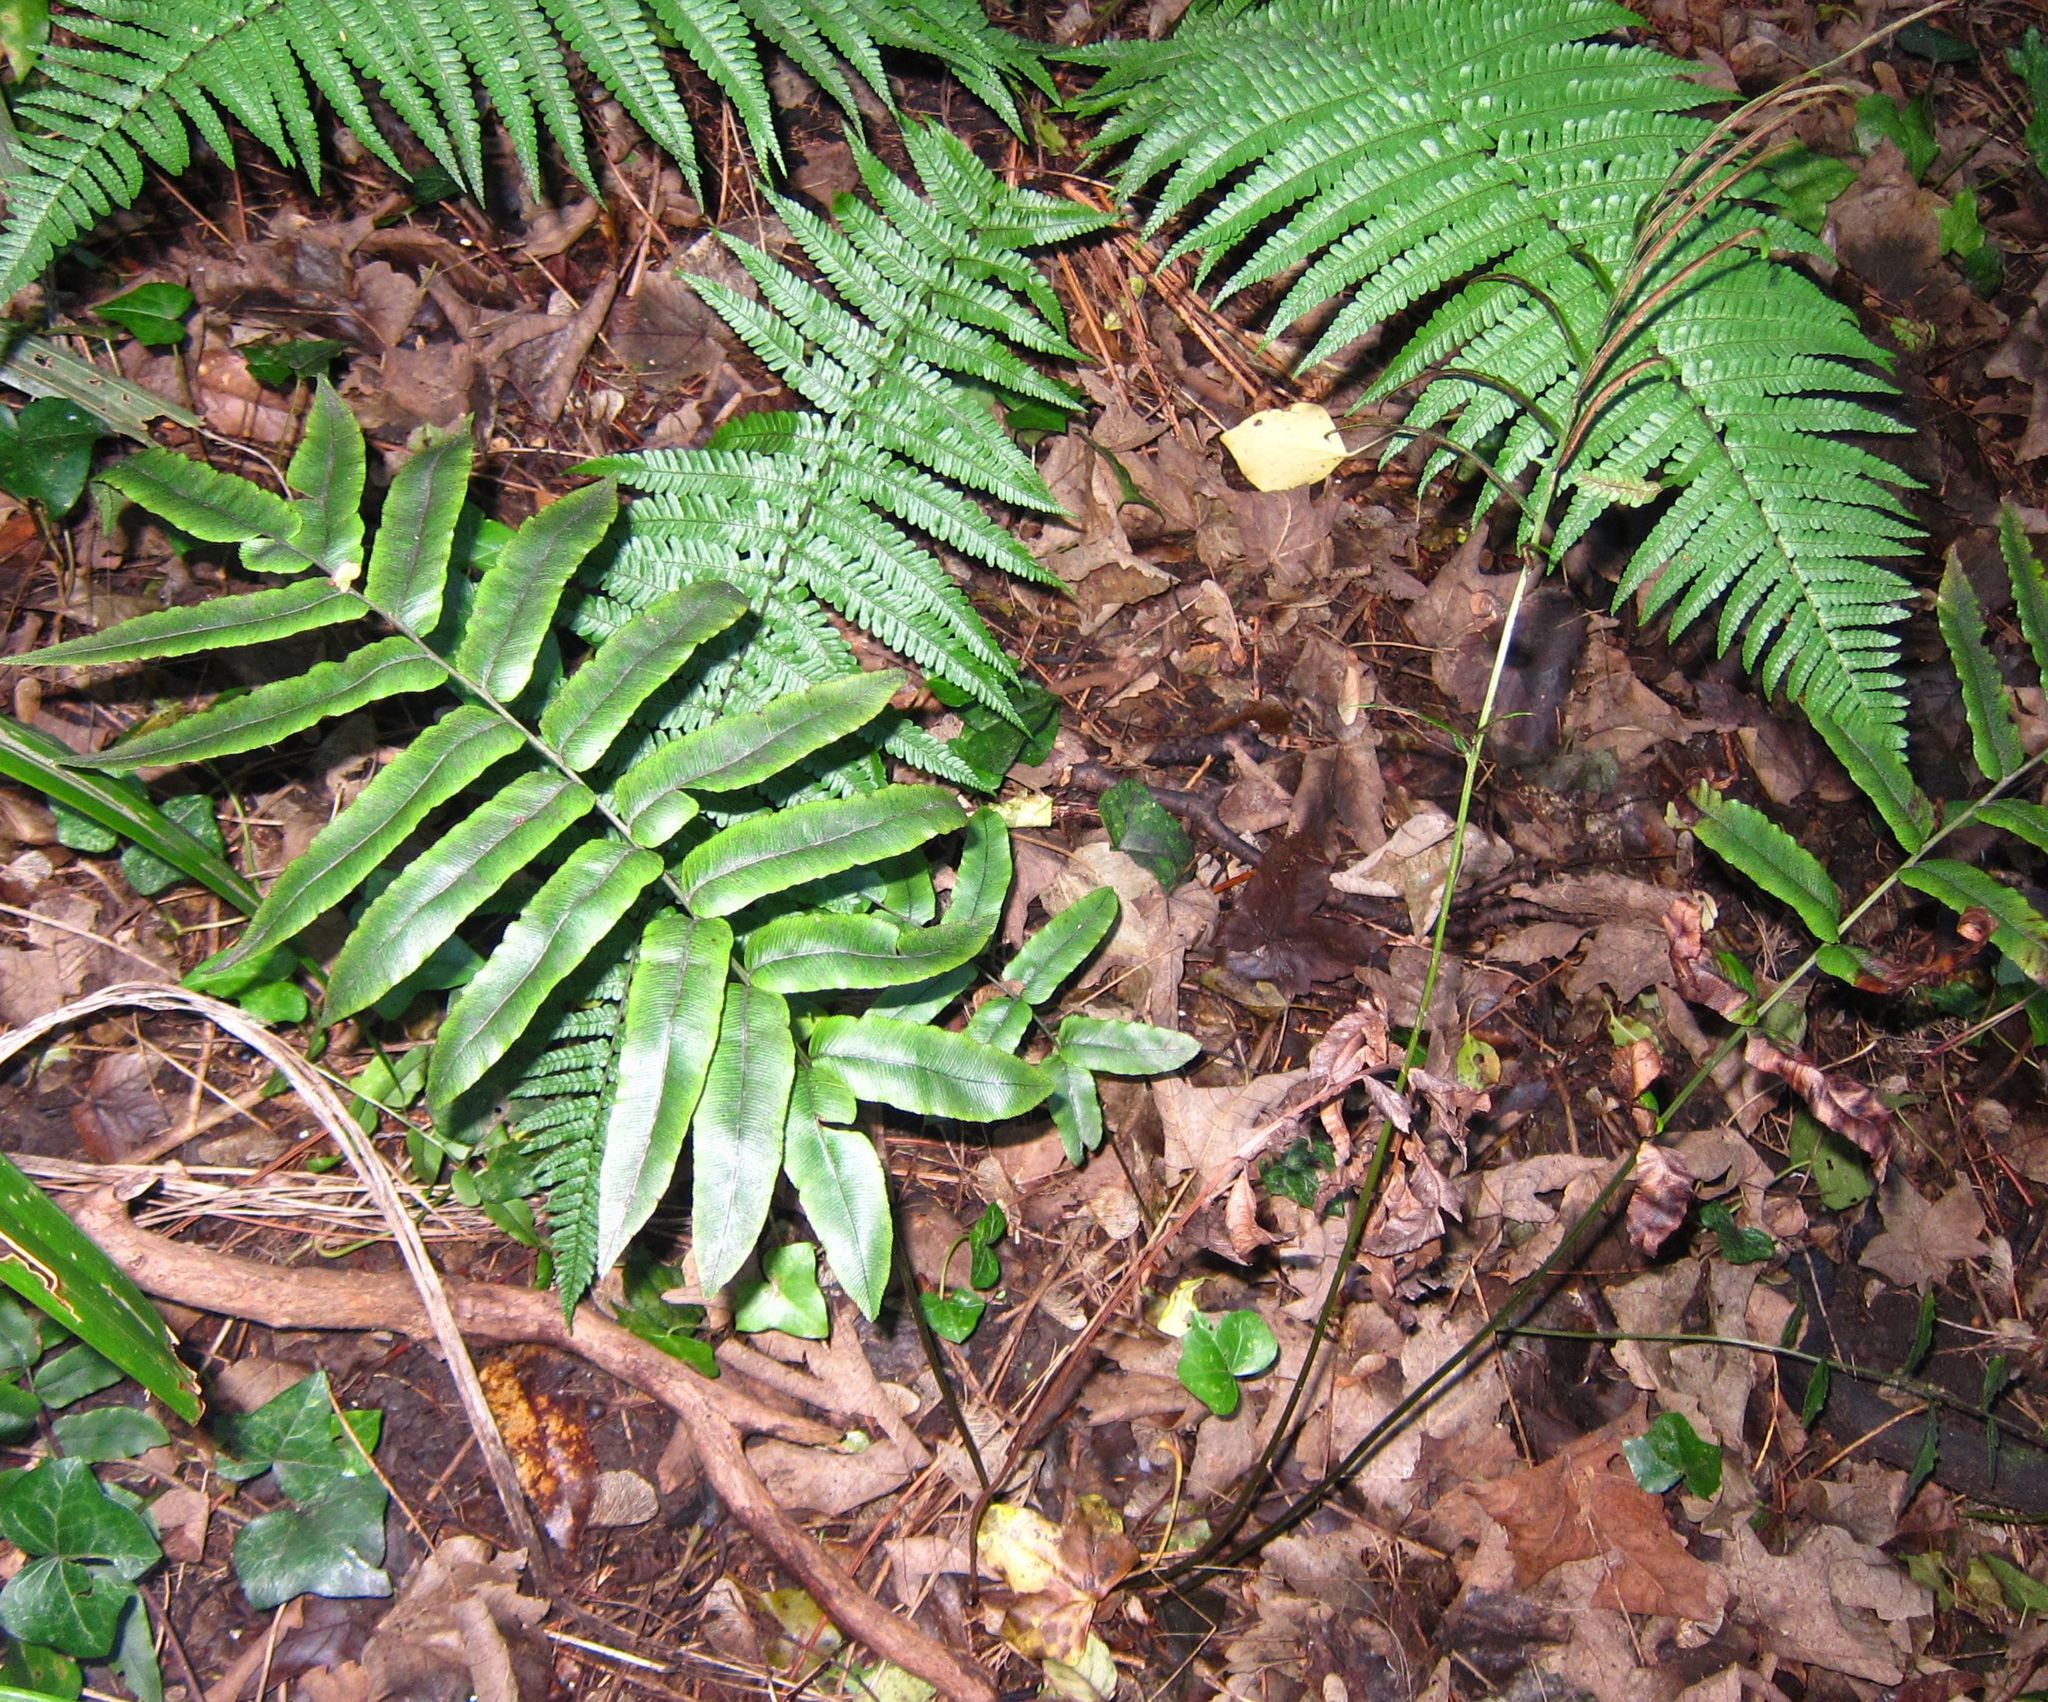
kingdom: Plantae
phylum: Tracheophyta
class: Polypodiopsida
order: Polypodiales
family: Blechnaceae
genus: Parablechnum
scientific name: Parablechnum procerum
